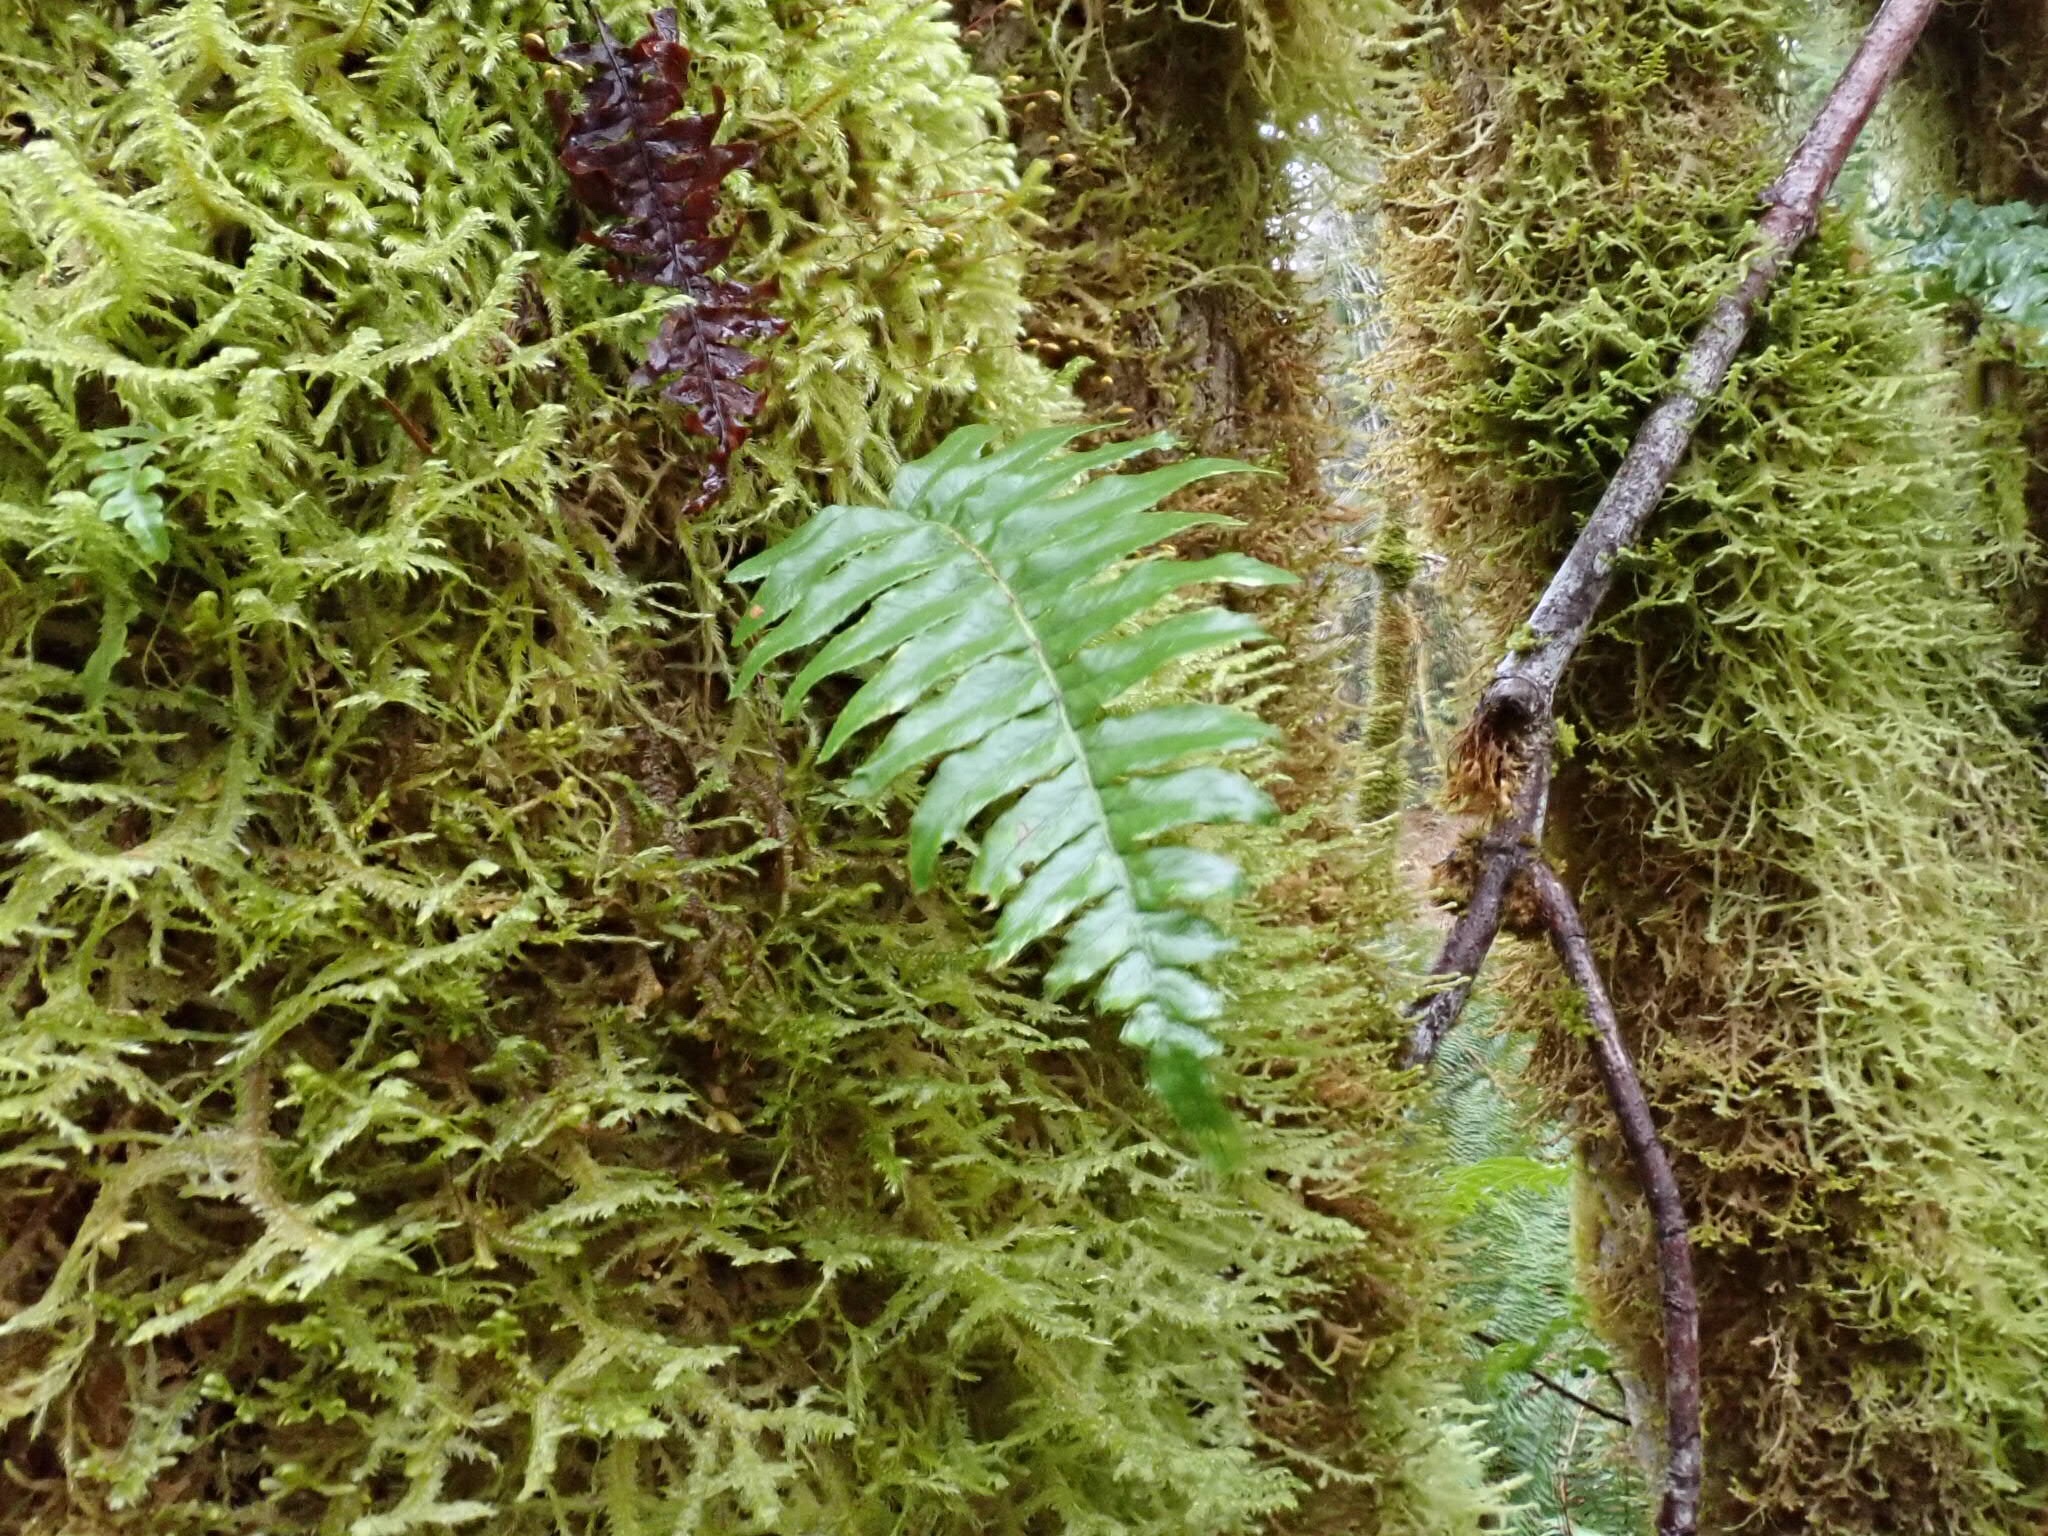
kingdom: Plantae
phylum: Tracheophyta
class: Polypodiopsida
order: Polypodiales
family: Polypodiaceae
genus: Polypodium
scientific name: Polypodium glycyrrhiza
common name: Licorice fern
